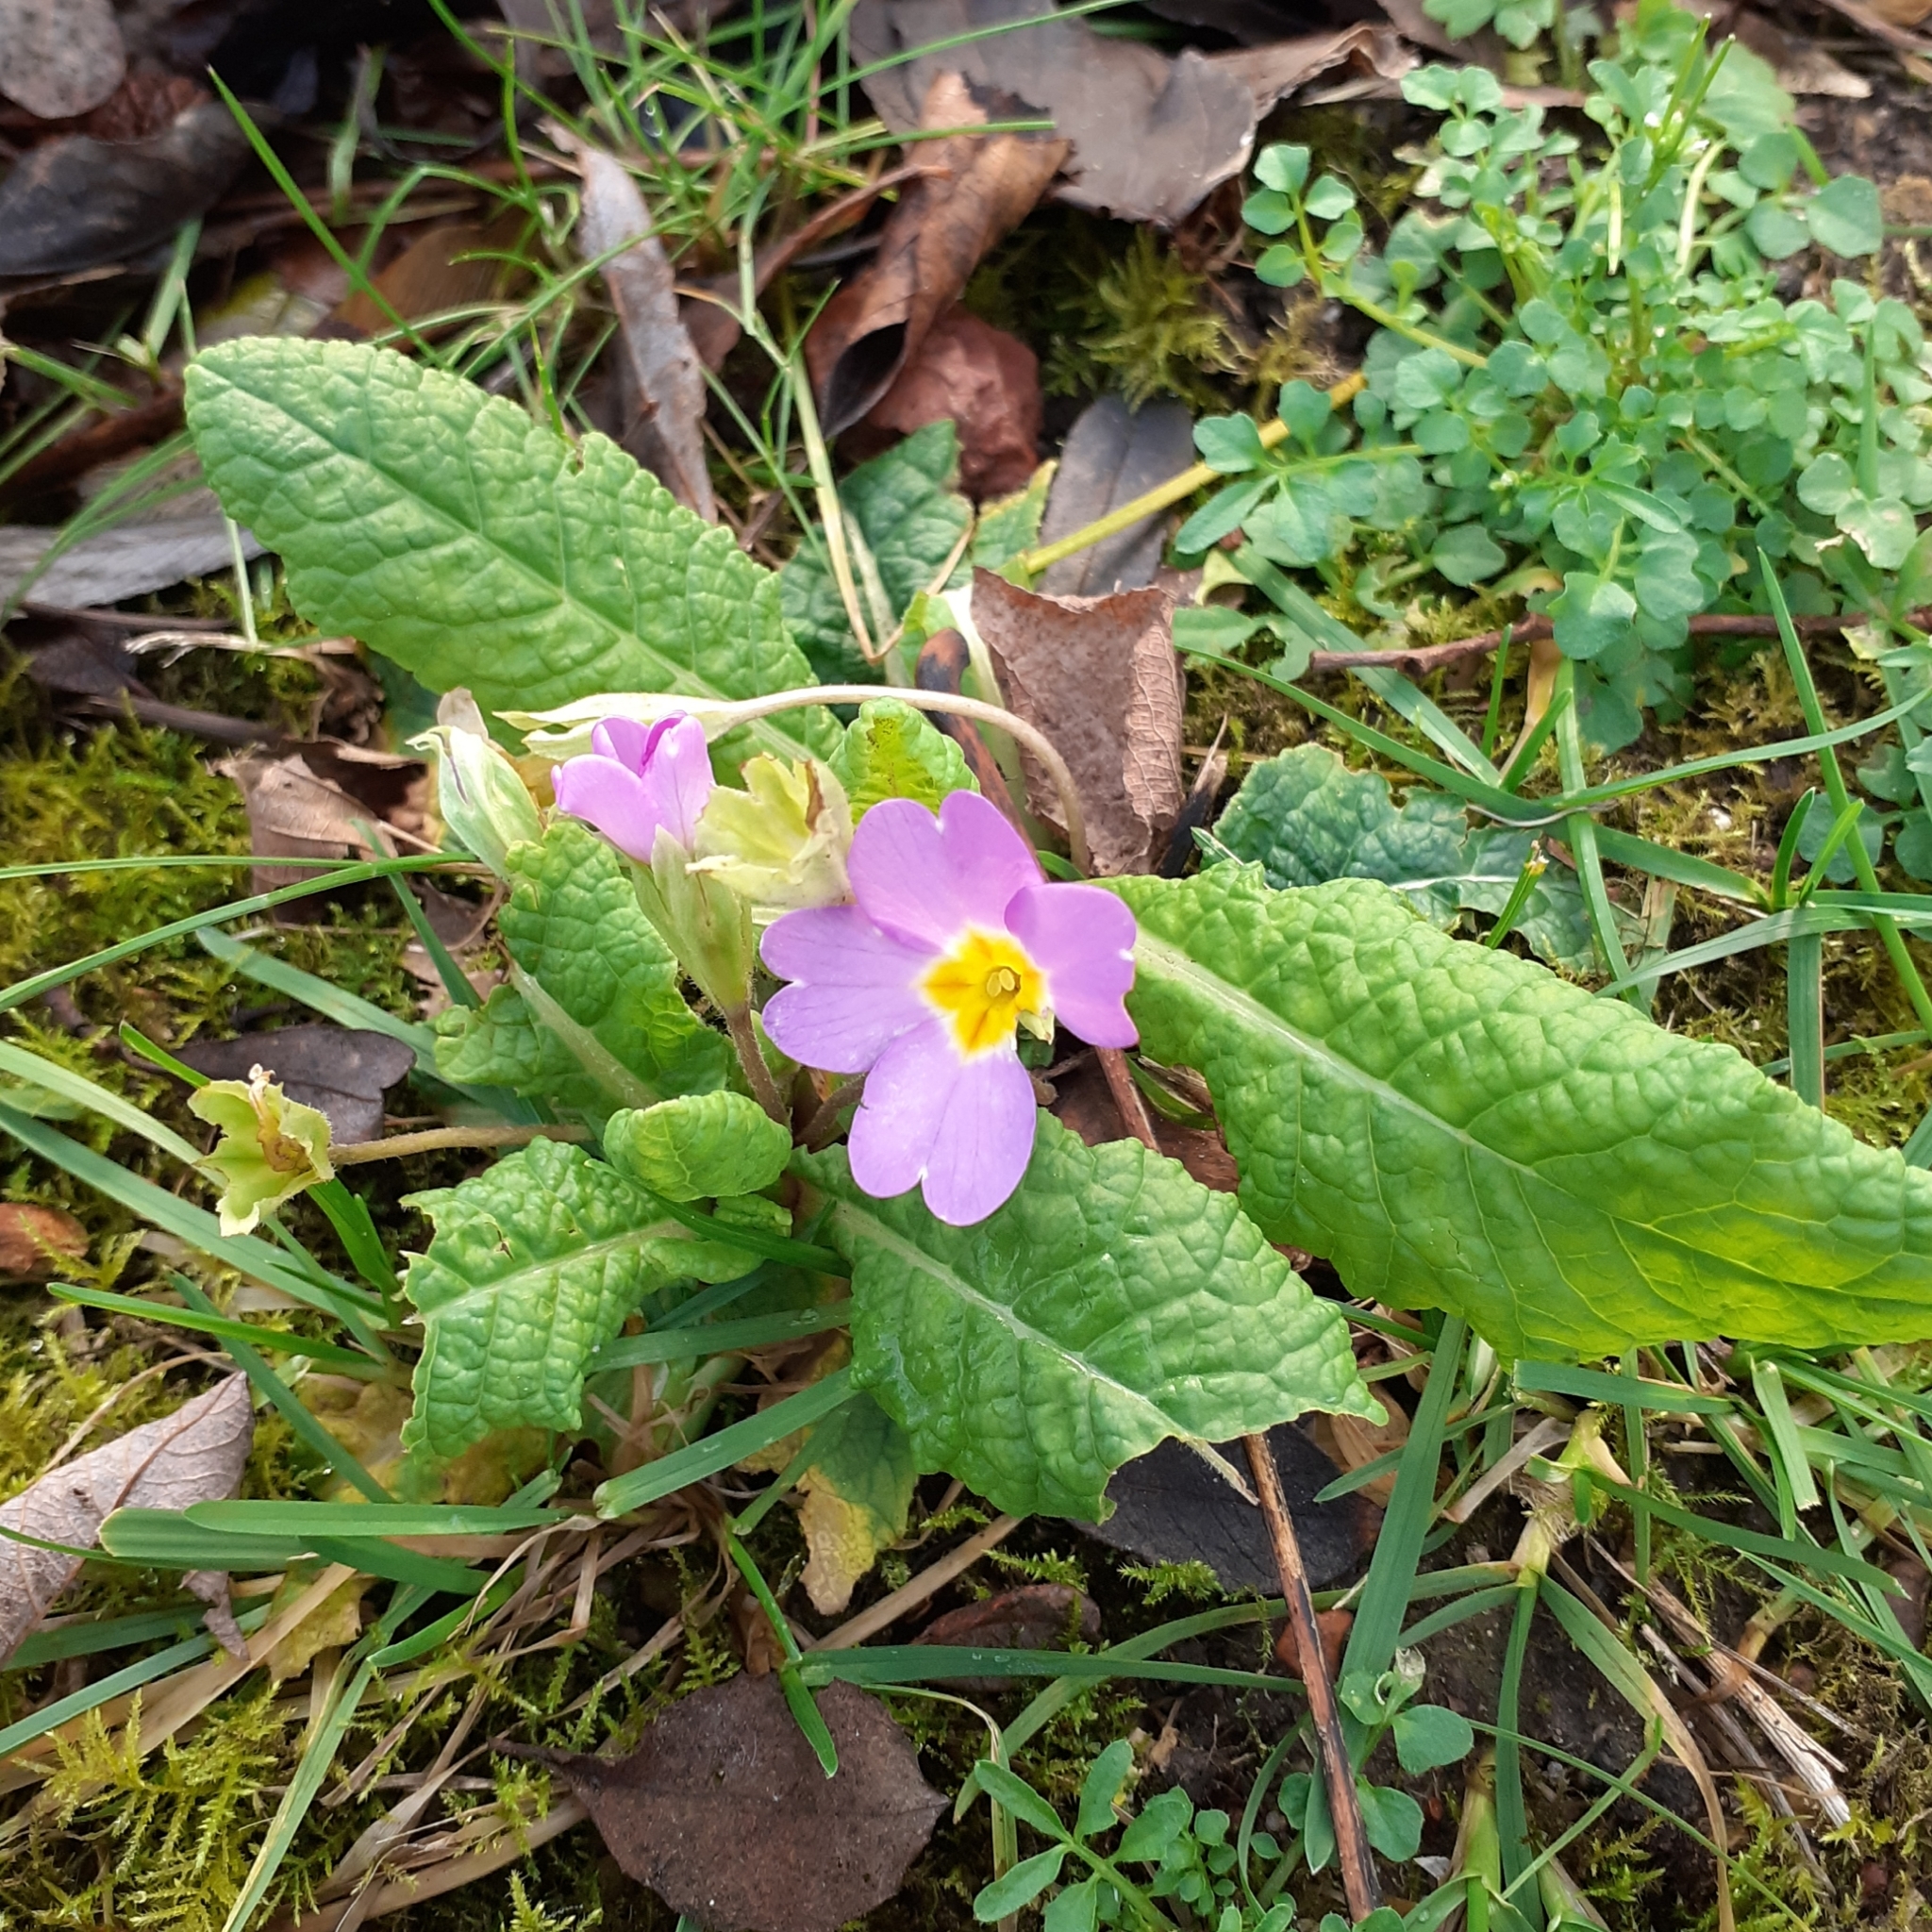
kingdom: Plantae
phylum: Tracheophyta
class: Magnoliopsida
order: Ericales
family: Primulaceae
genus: Primula
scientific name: Primula vulgaris
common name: Primrose
